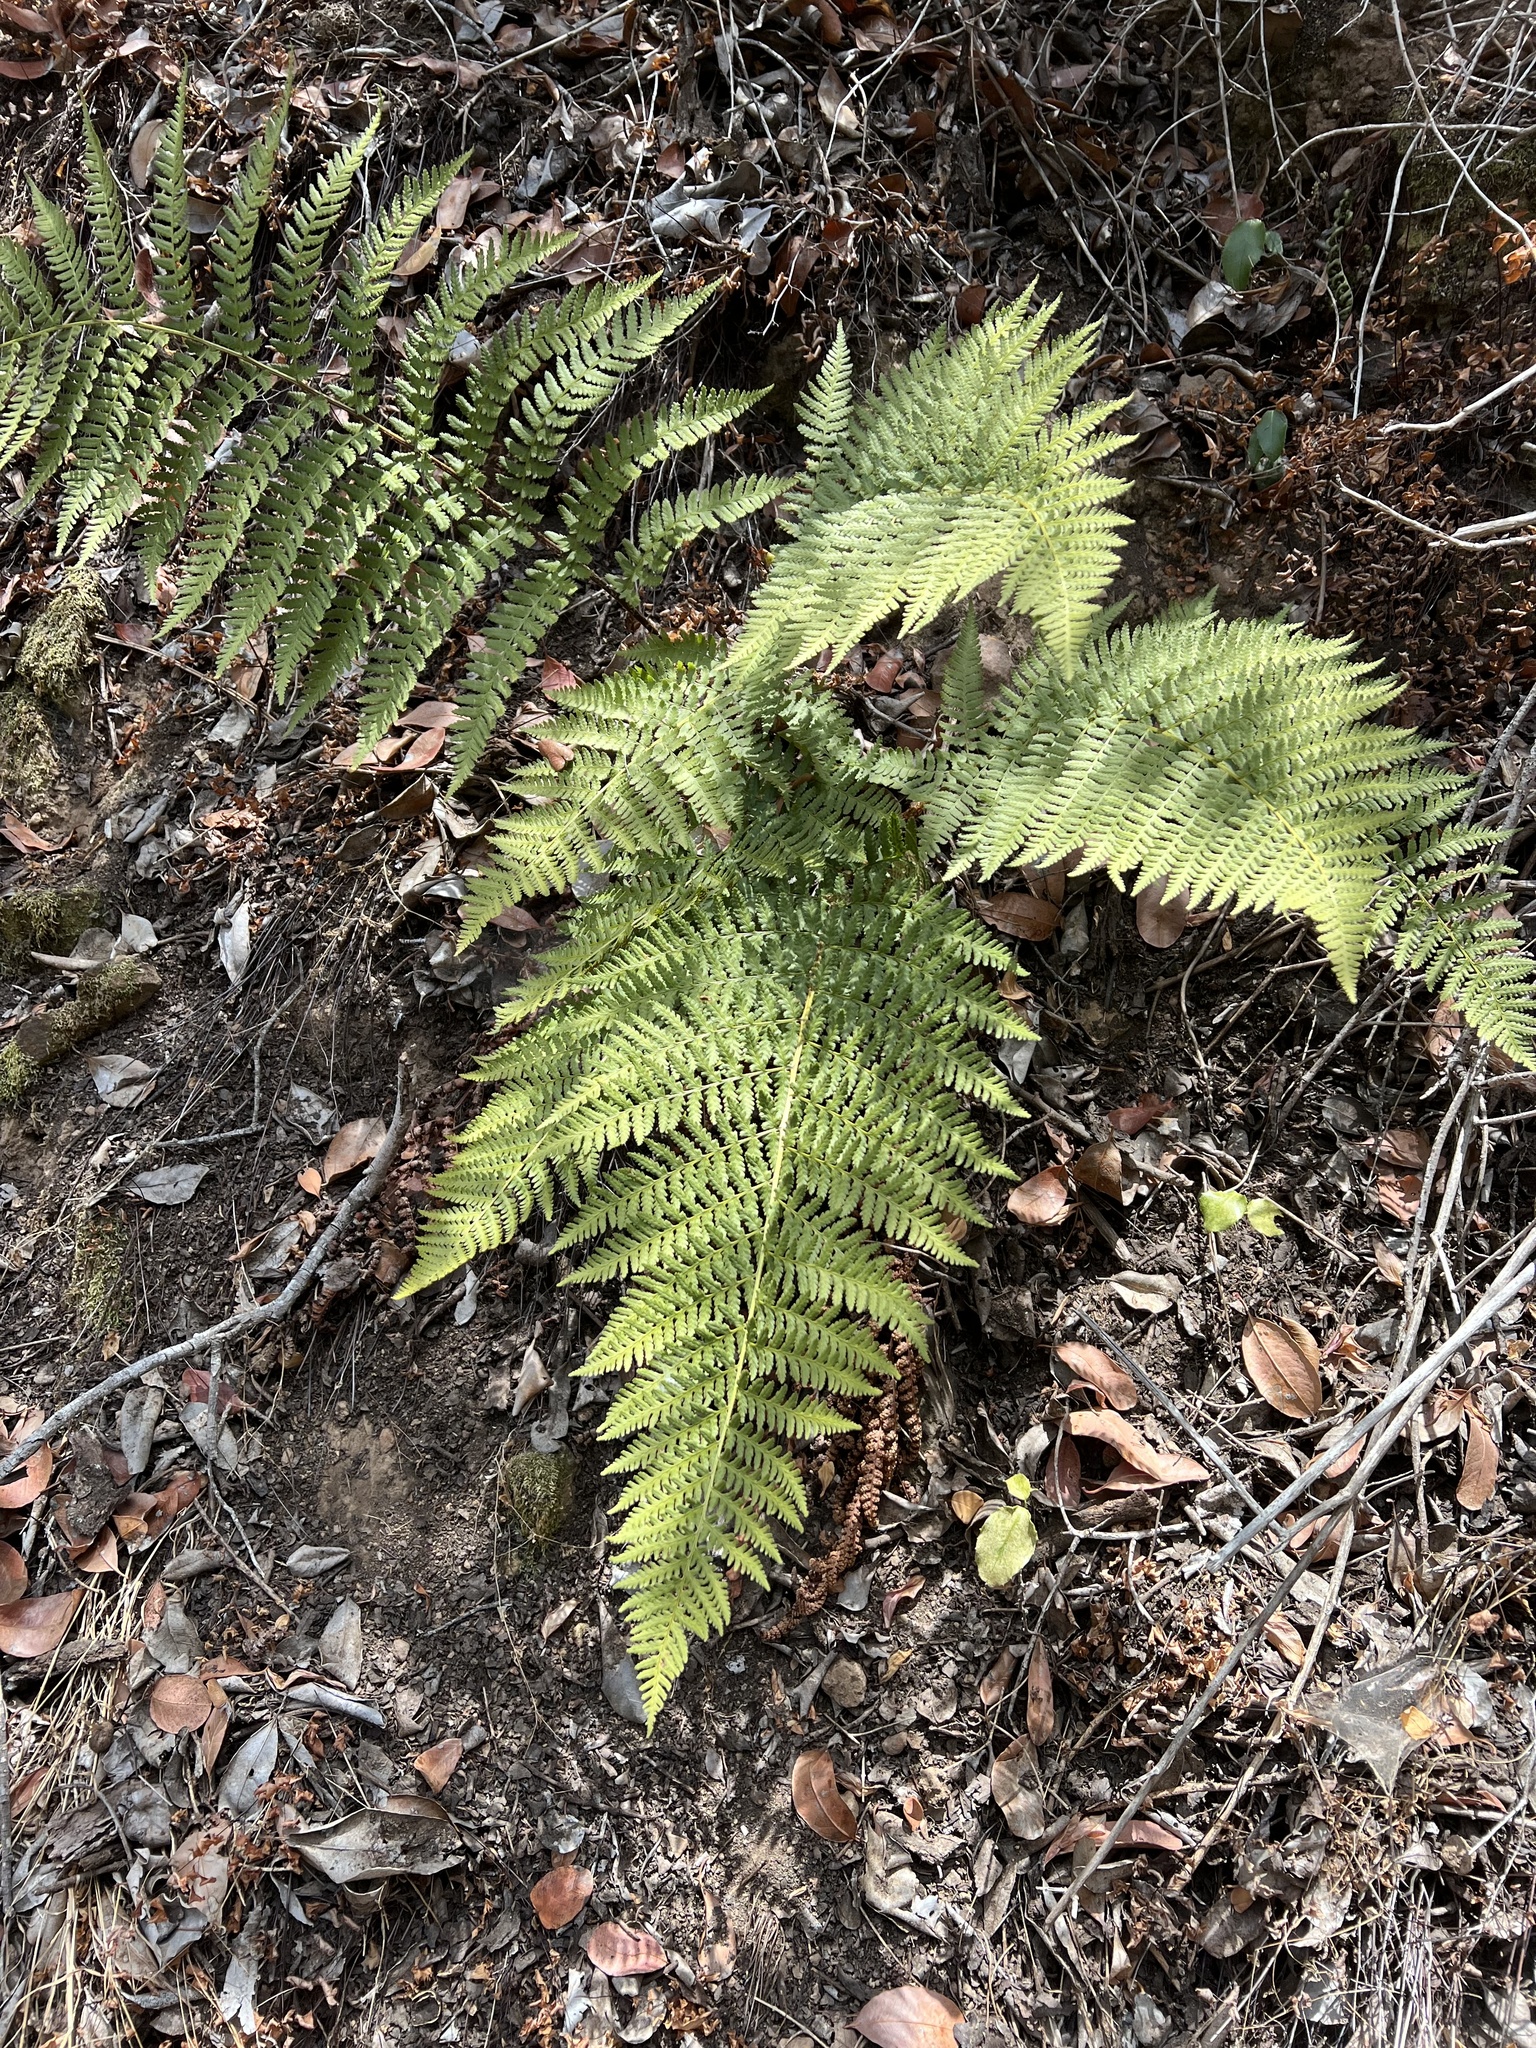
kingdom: Plantae
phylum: Tracheophyta
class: Polypodiopsida
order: Polypodiales
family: Dryopteridaceae
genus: Dryopteris
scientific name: Dryopteris arguta
